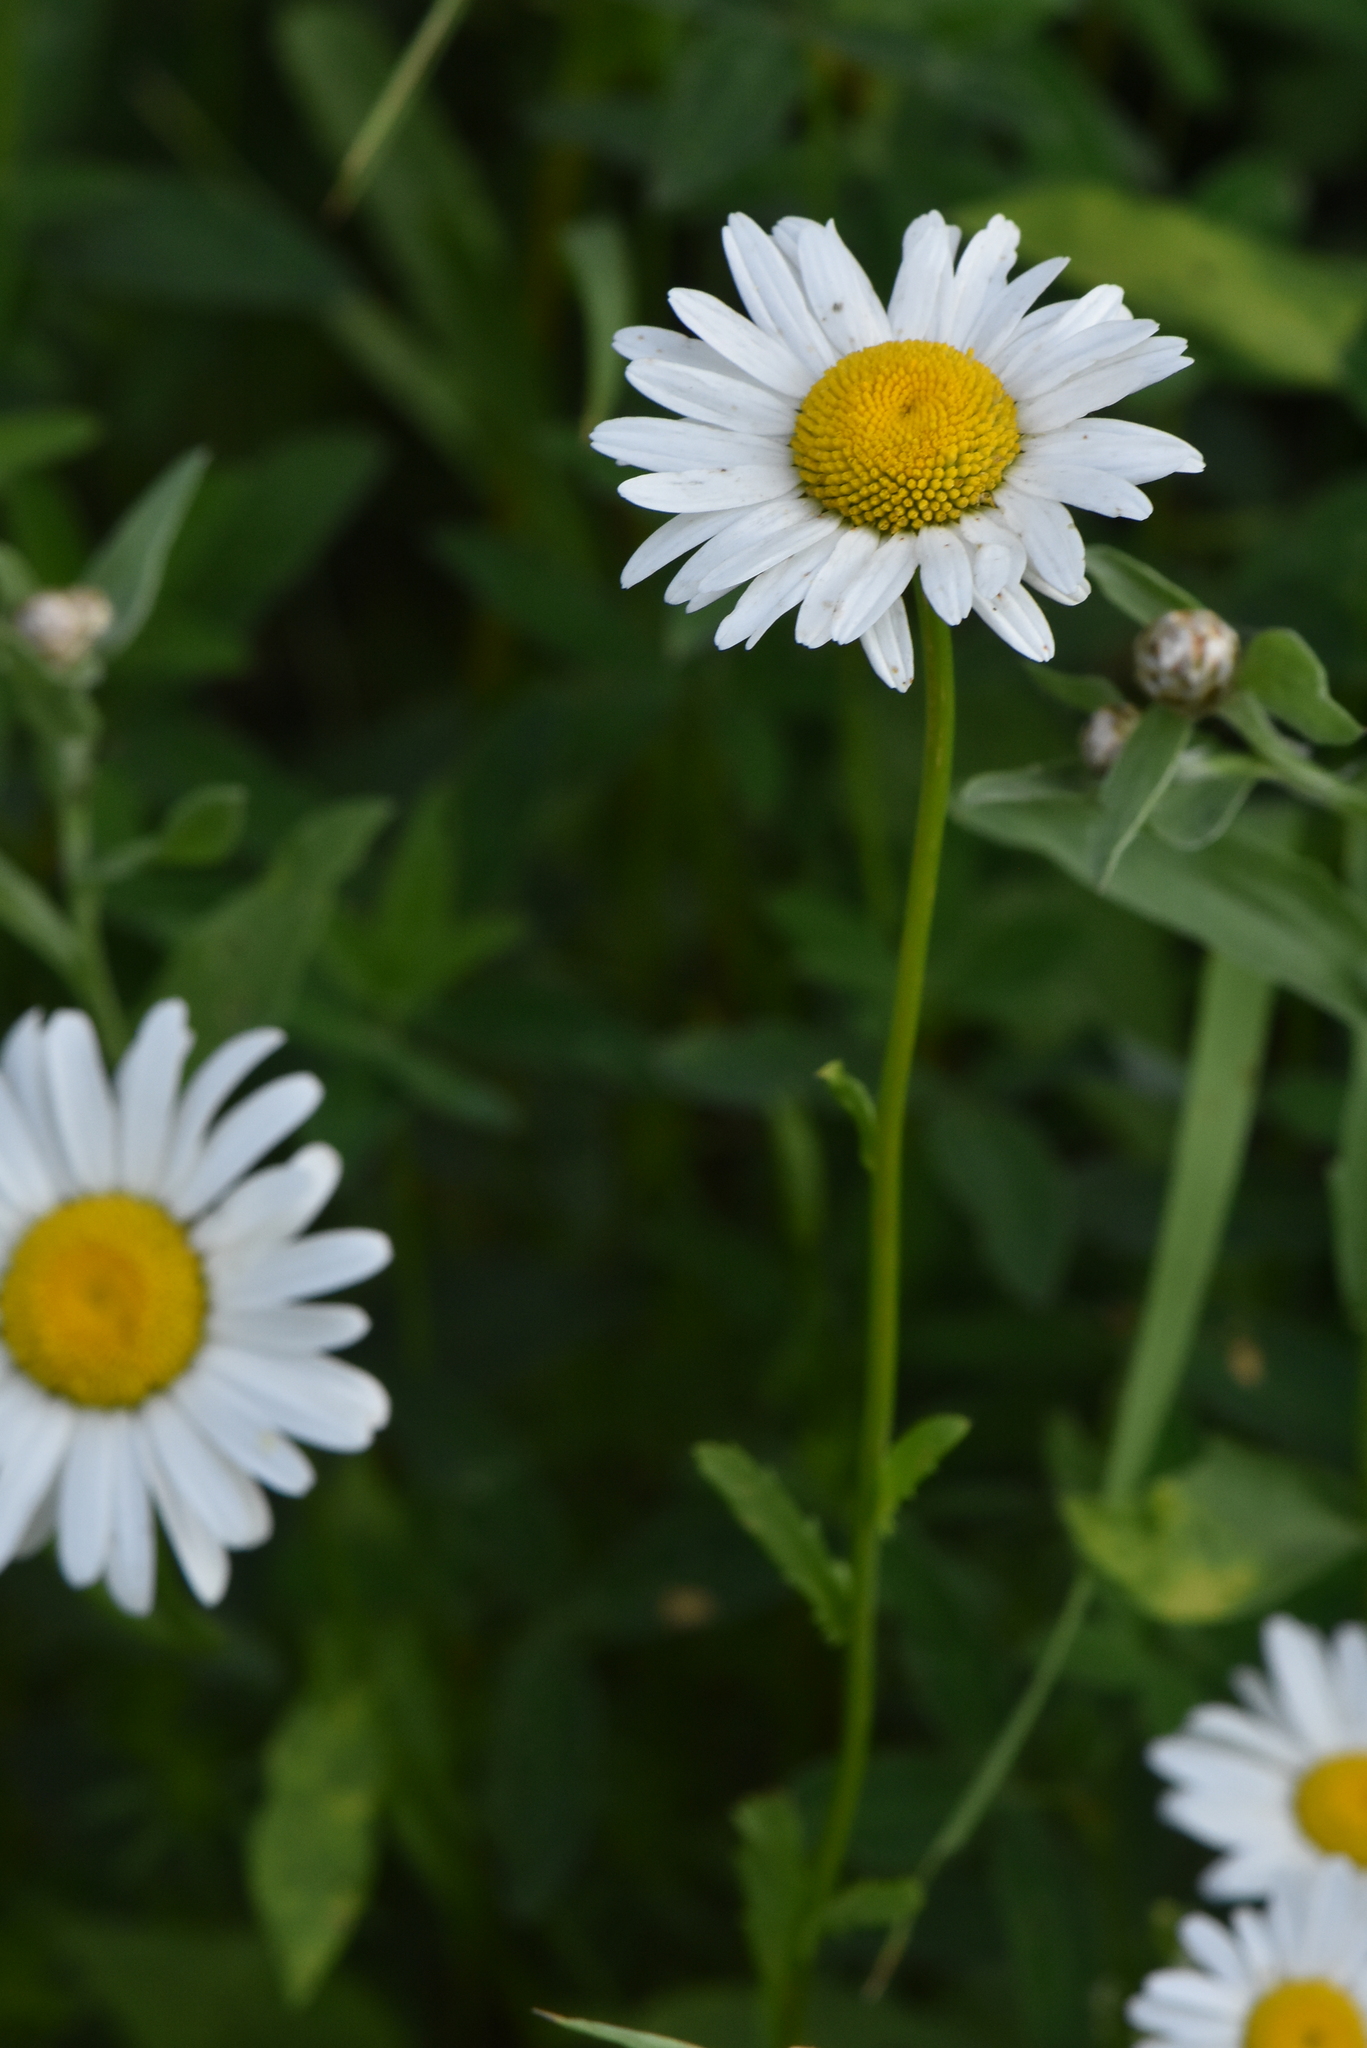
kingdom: Plantae
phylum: Tracheophyta
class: Magnoliopsida
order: Asterales
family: Asteraceae
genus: Leucanthemum
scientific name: Leucanthemum vulgare
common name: Oxeye daisy
